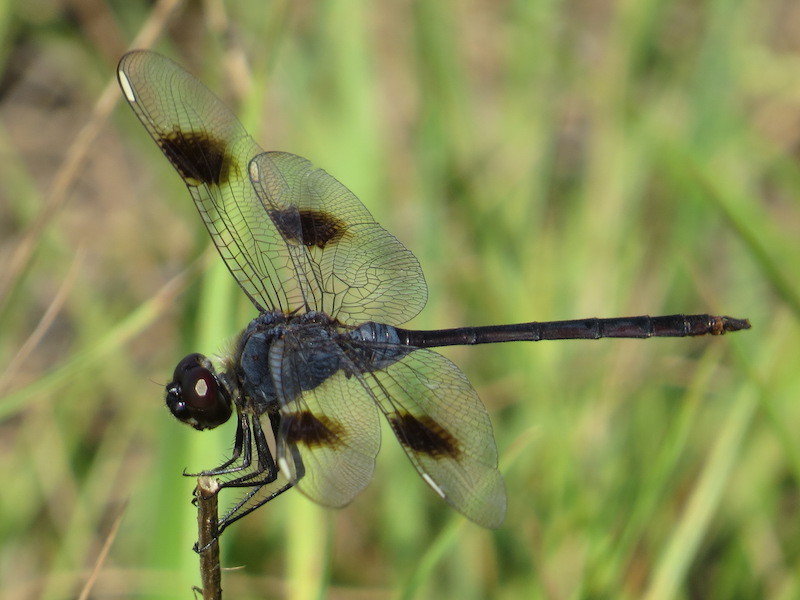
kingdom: Animalia
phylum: Arthropoda
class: Insecta
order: Odonata
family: Libellulidae
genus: Brachymesia
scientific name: Brachymesia gravida
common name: Four-spotted pennant
